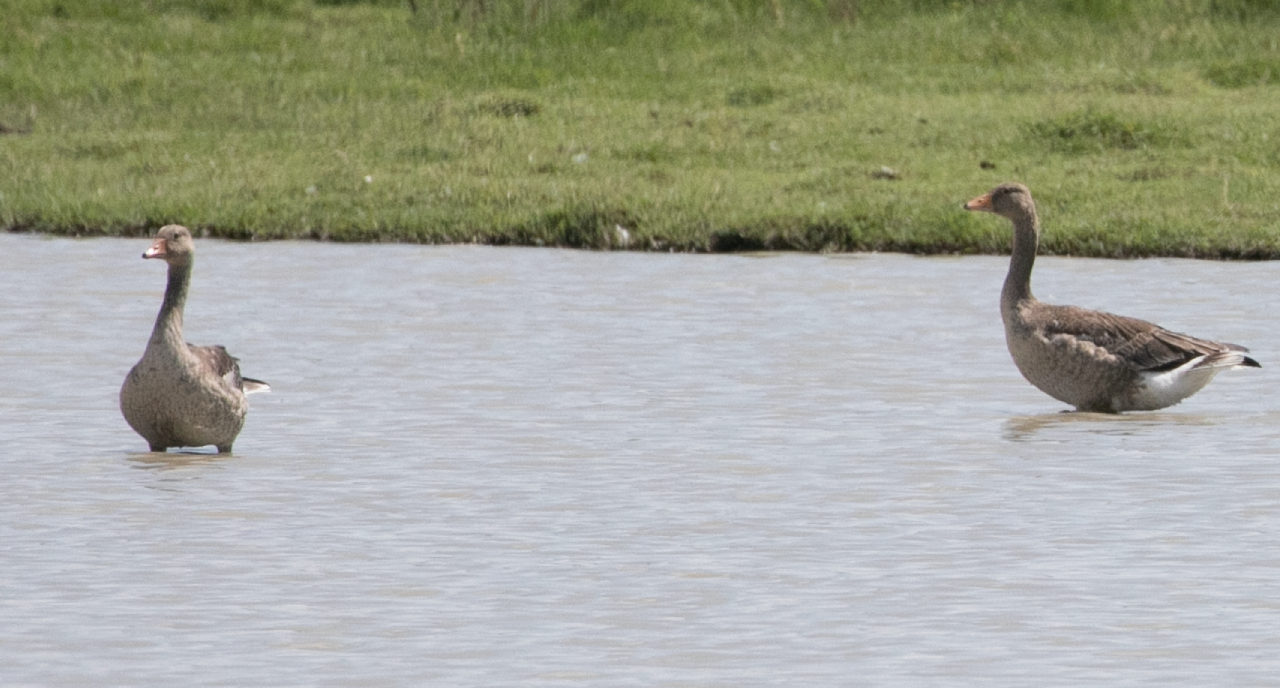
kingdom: Animalia
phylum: Chordata
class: Aves
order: Anseriformes
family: Anatidae
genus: Anser
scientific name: Anser anser
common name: Greylag goose
